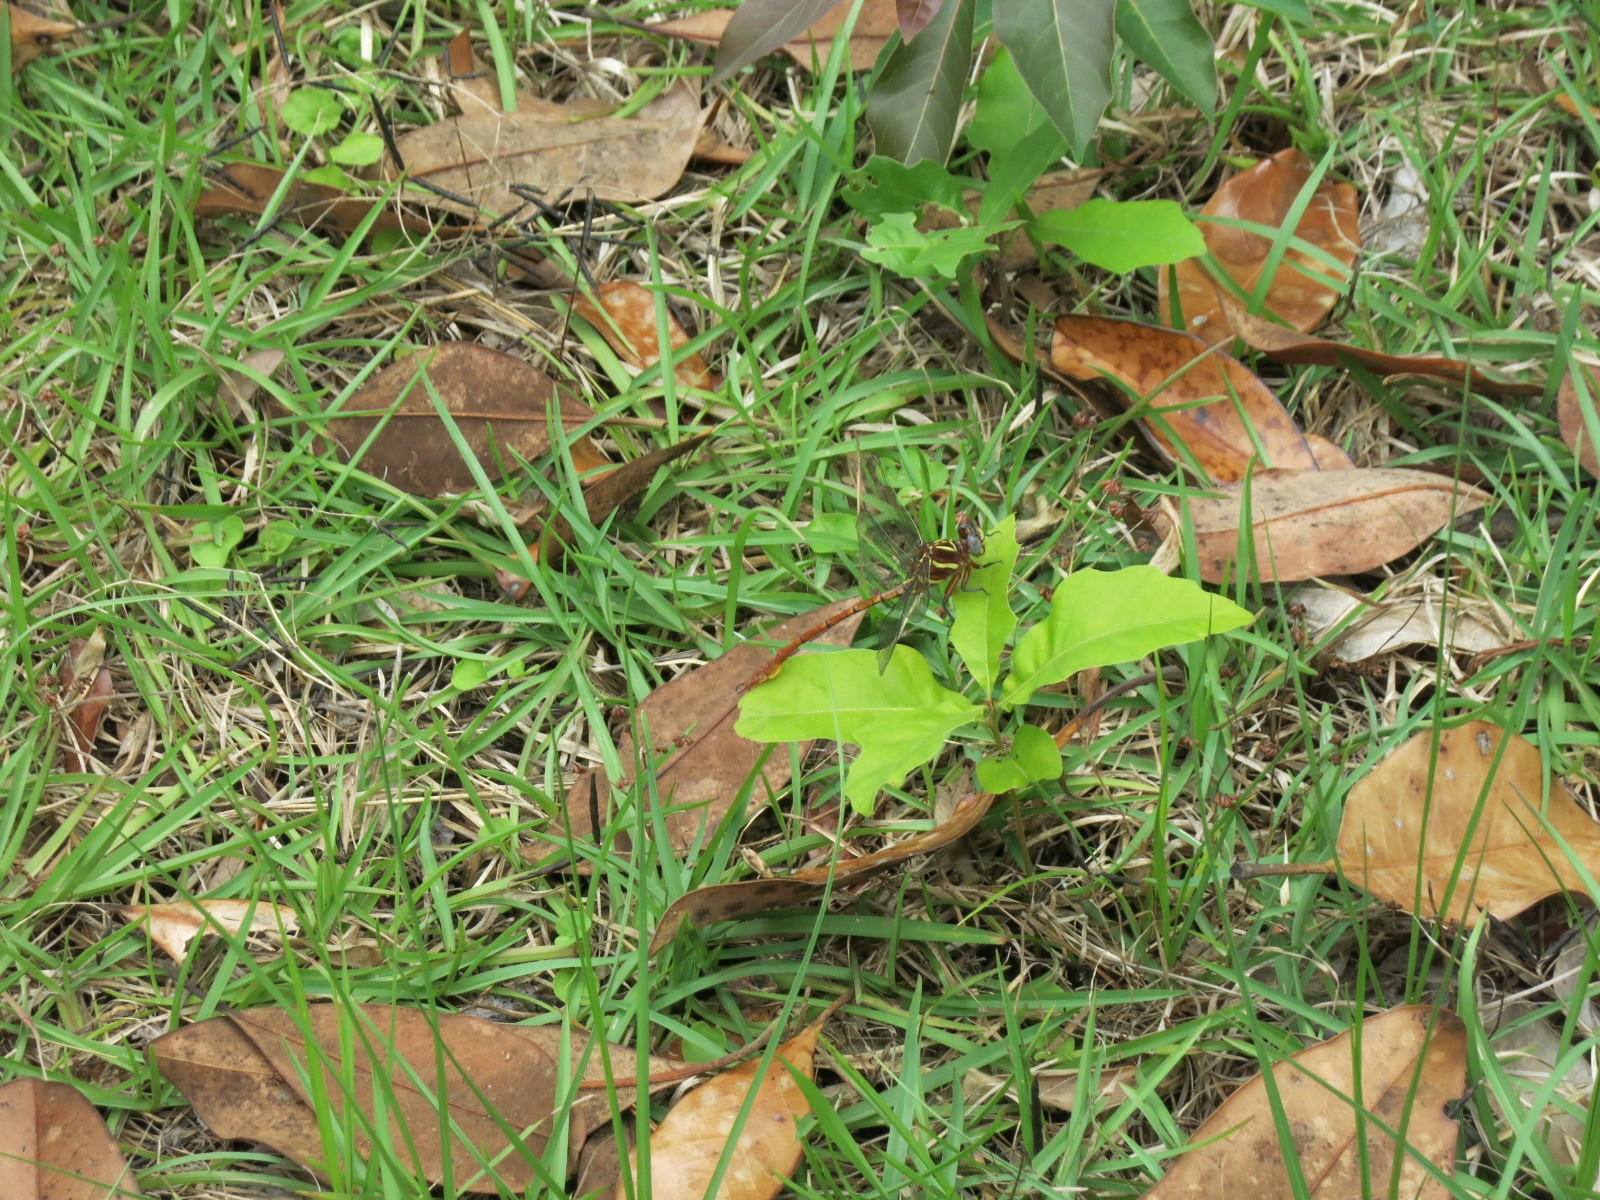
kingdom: Animalia
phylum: Arthropoda
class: Insecta
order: Odonata
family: Gomphidae
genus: Aphylla
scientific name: Aphylla williamsoni
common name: Two-striped forceptail
